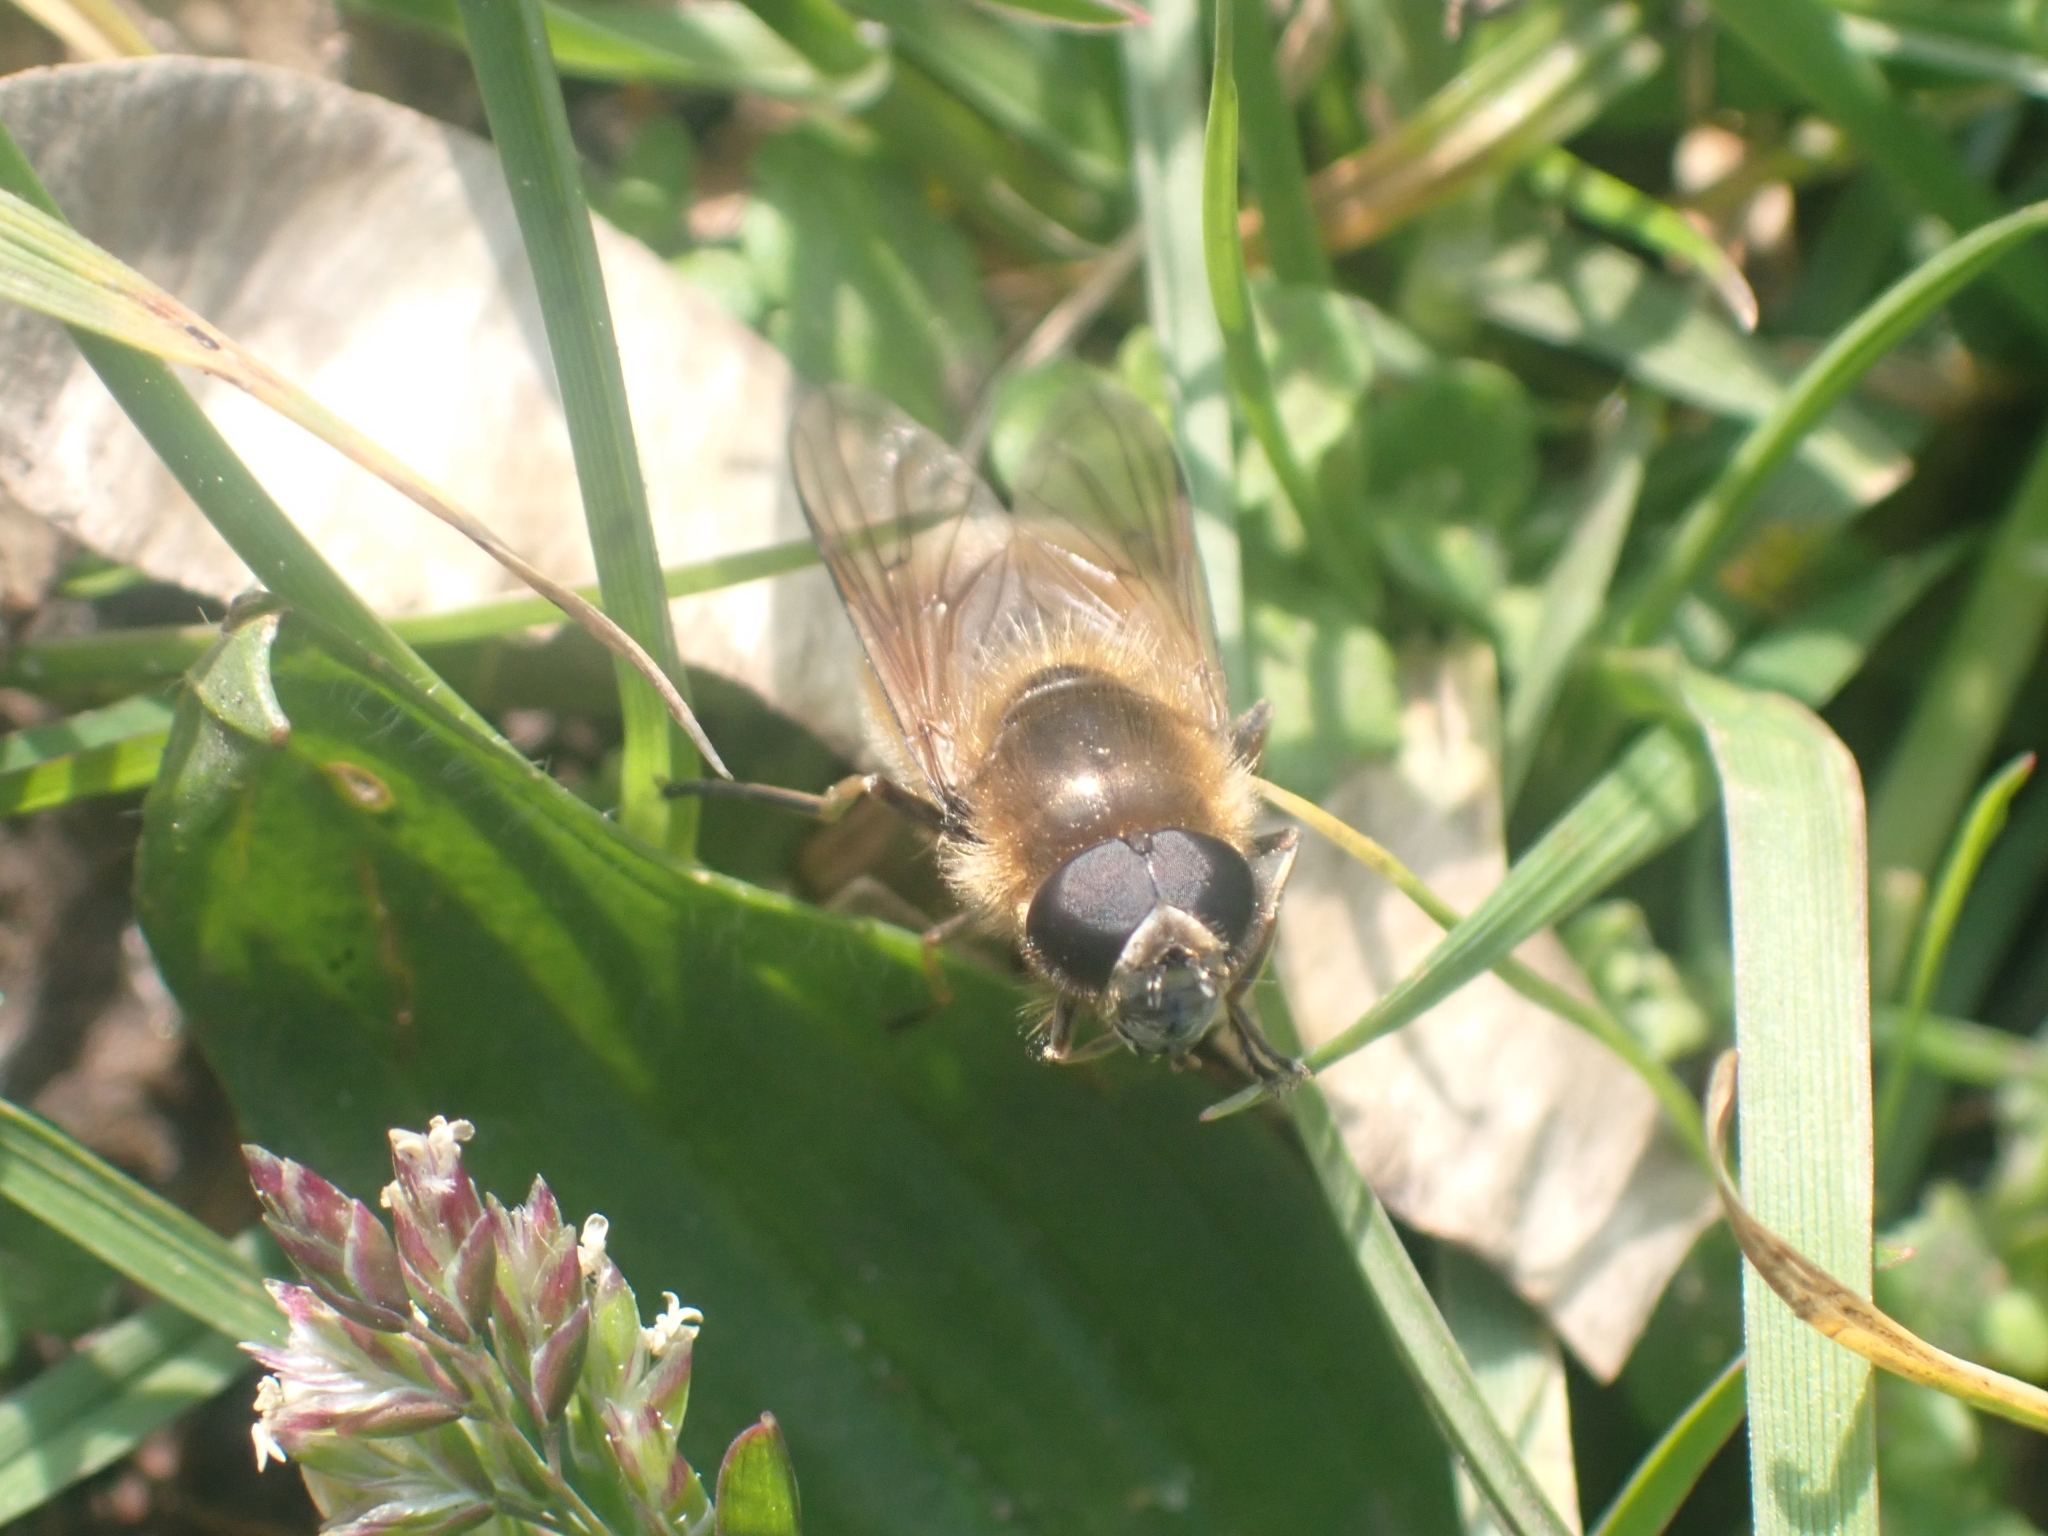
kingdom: Animalia
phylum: Arthropoda
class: Insecta
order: Diptera
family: Syrphidae
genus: Cheilosia
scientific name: Cheilosia corydon
